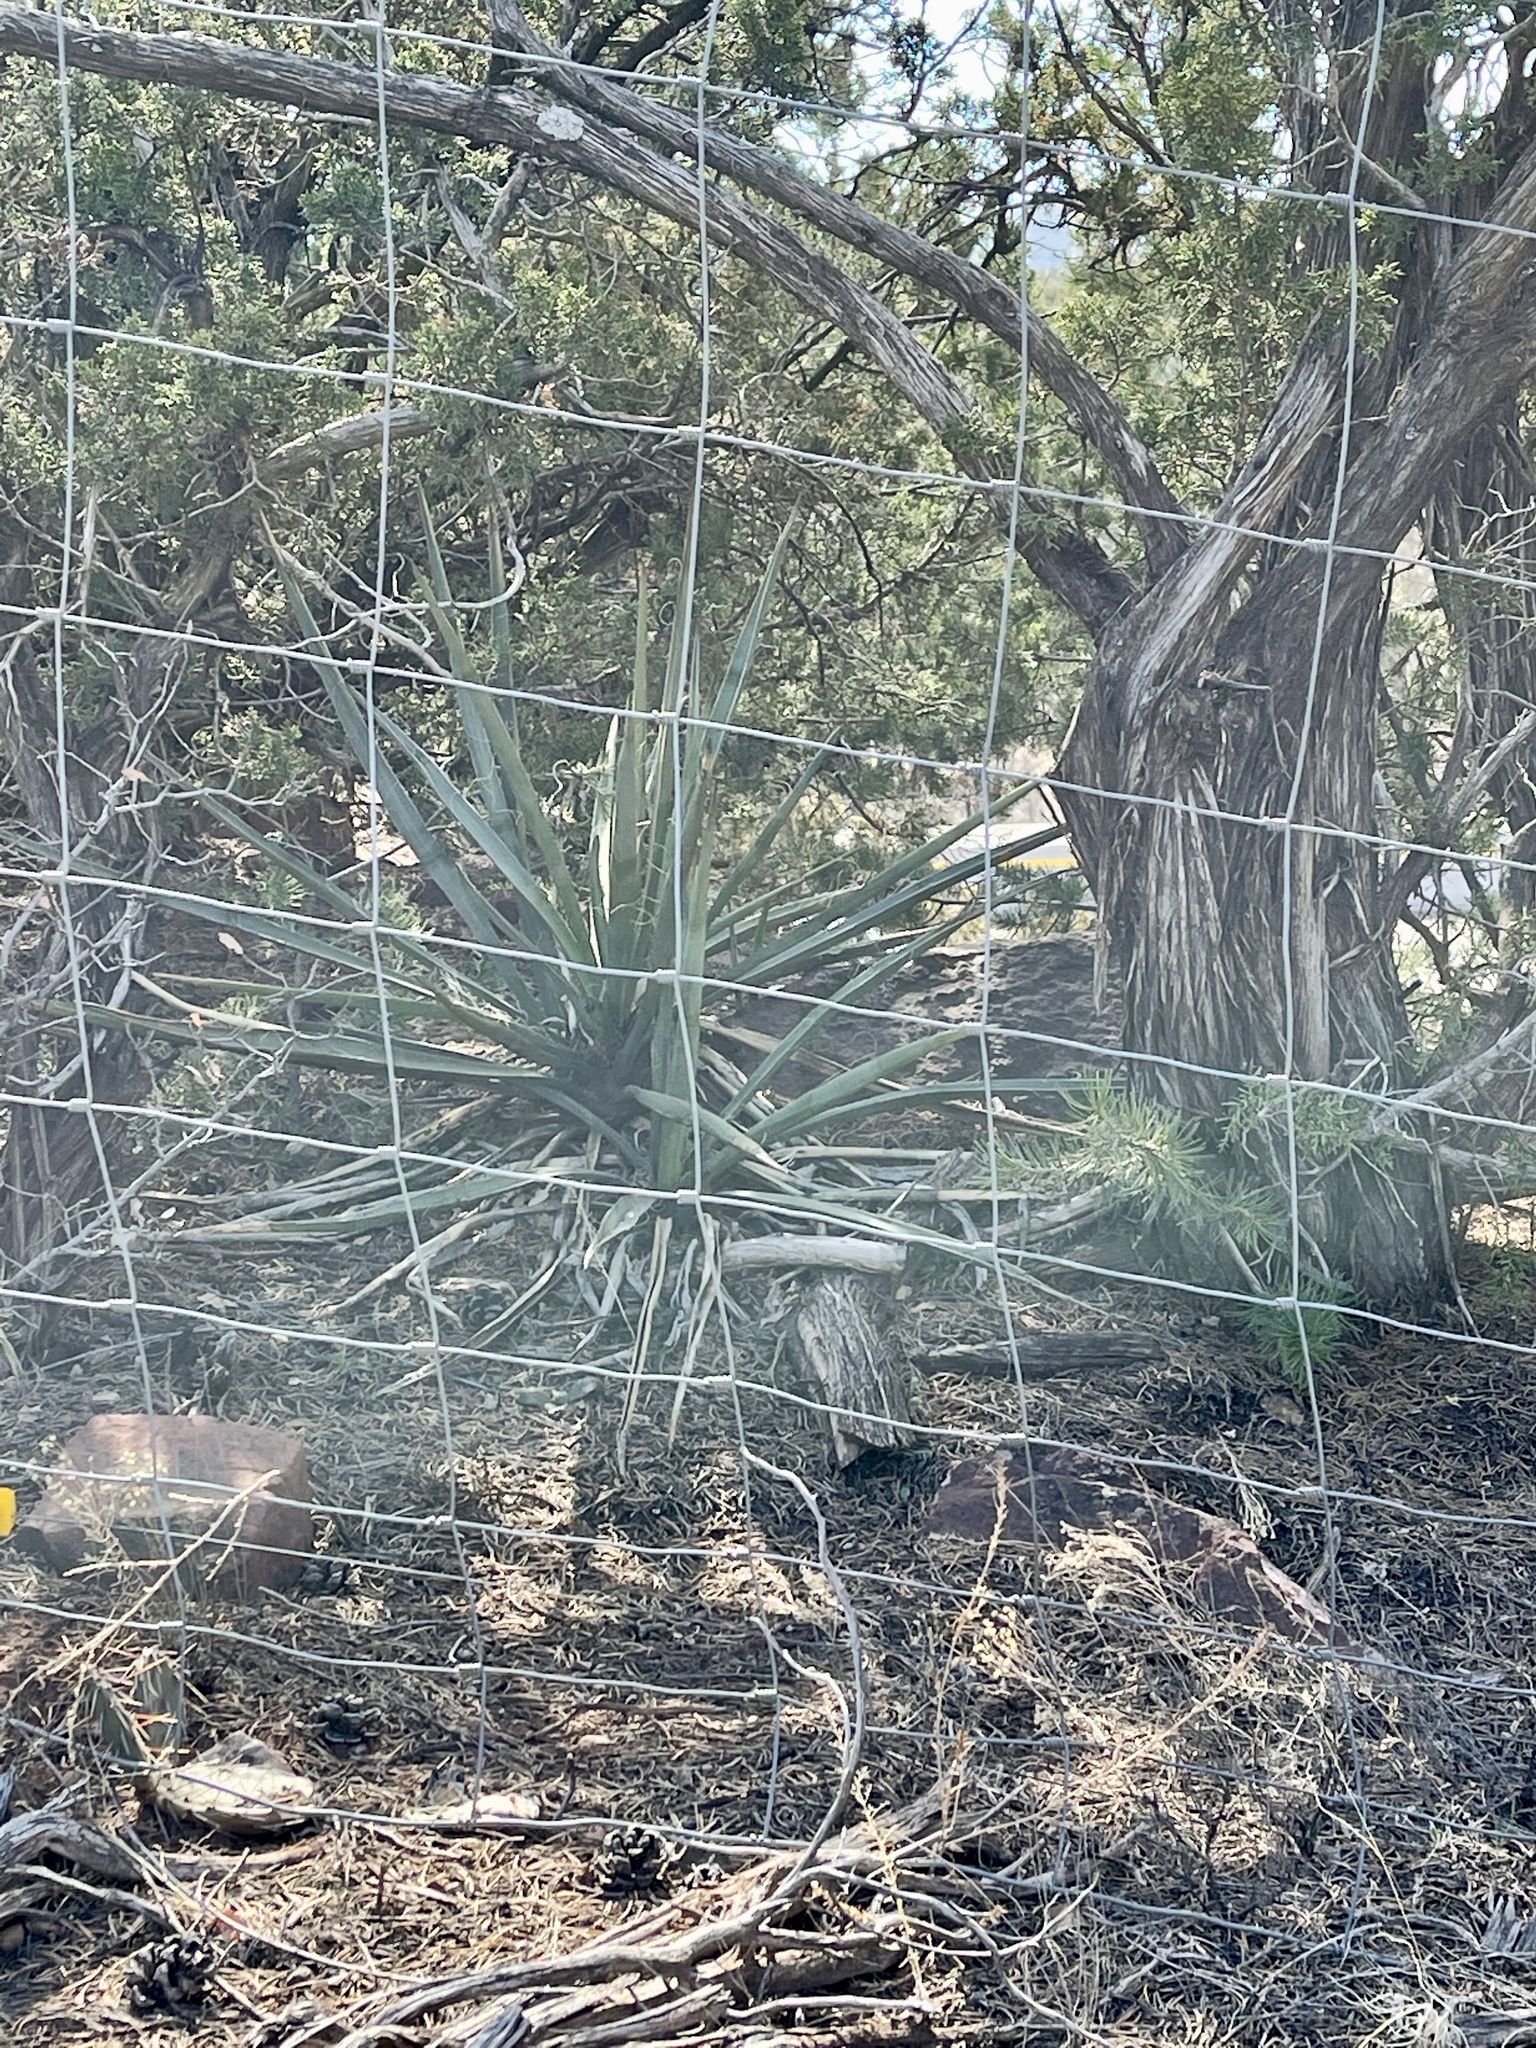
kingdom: Plantae
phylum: Tracheophyta
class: Liliopsida
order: Asparagales
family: Asparagaceae
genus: Yucca
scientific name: Yucca baccata
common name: Banana yucca
